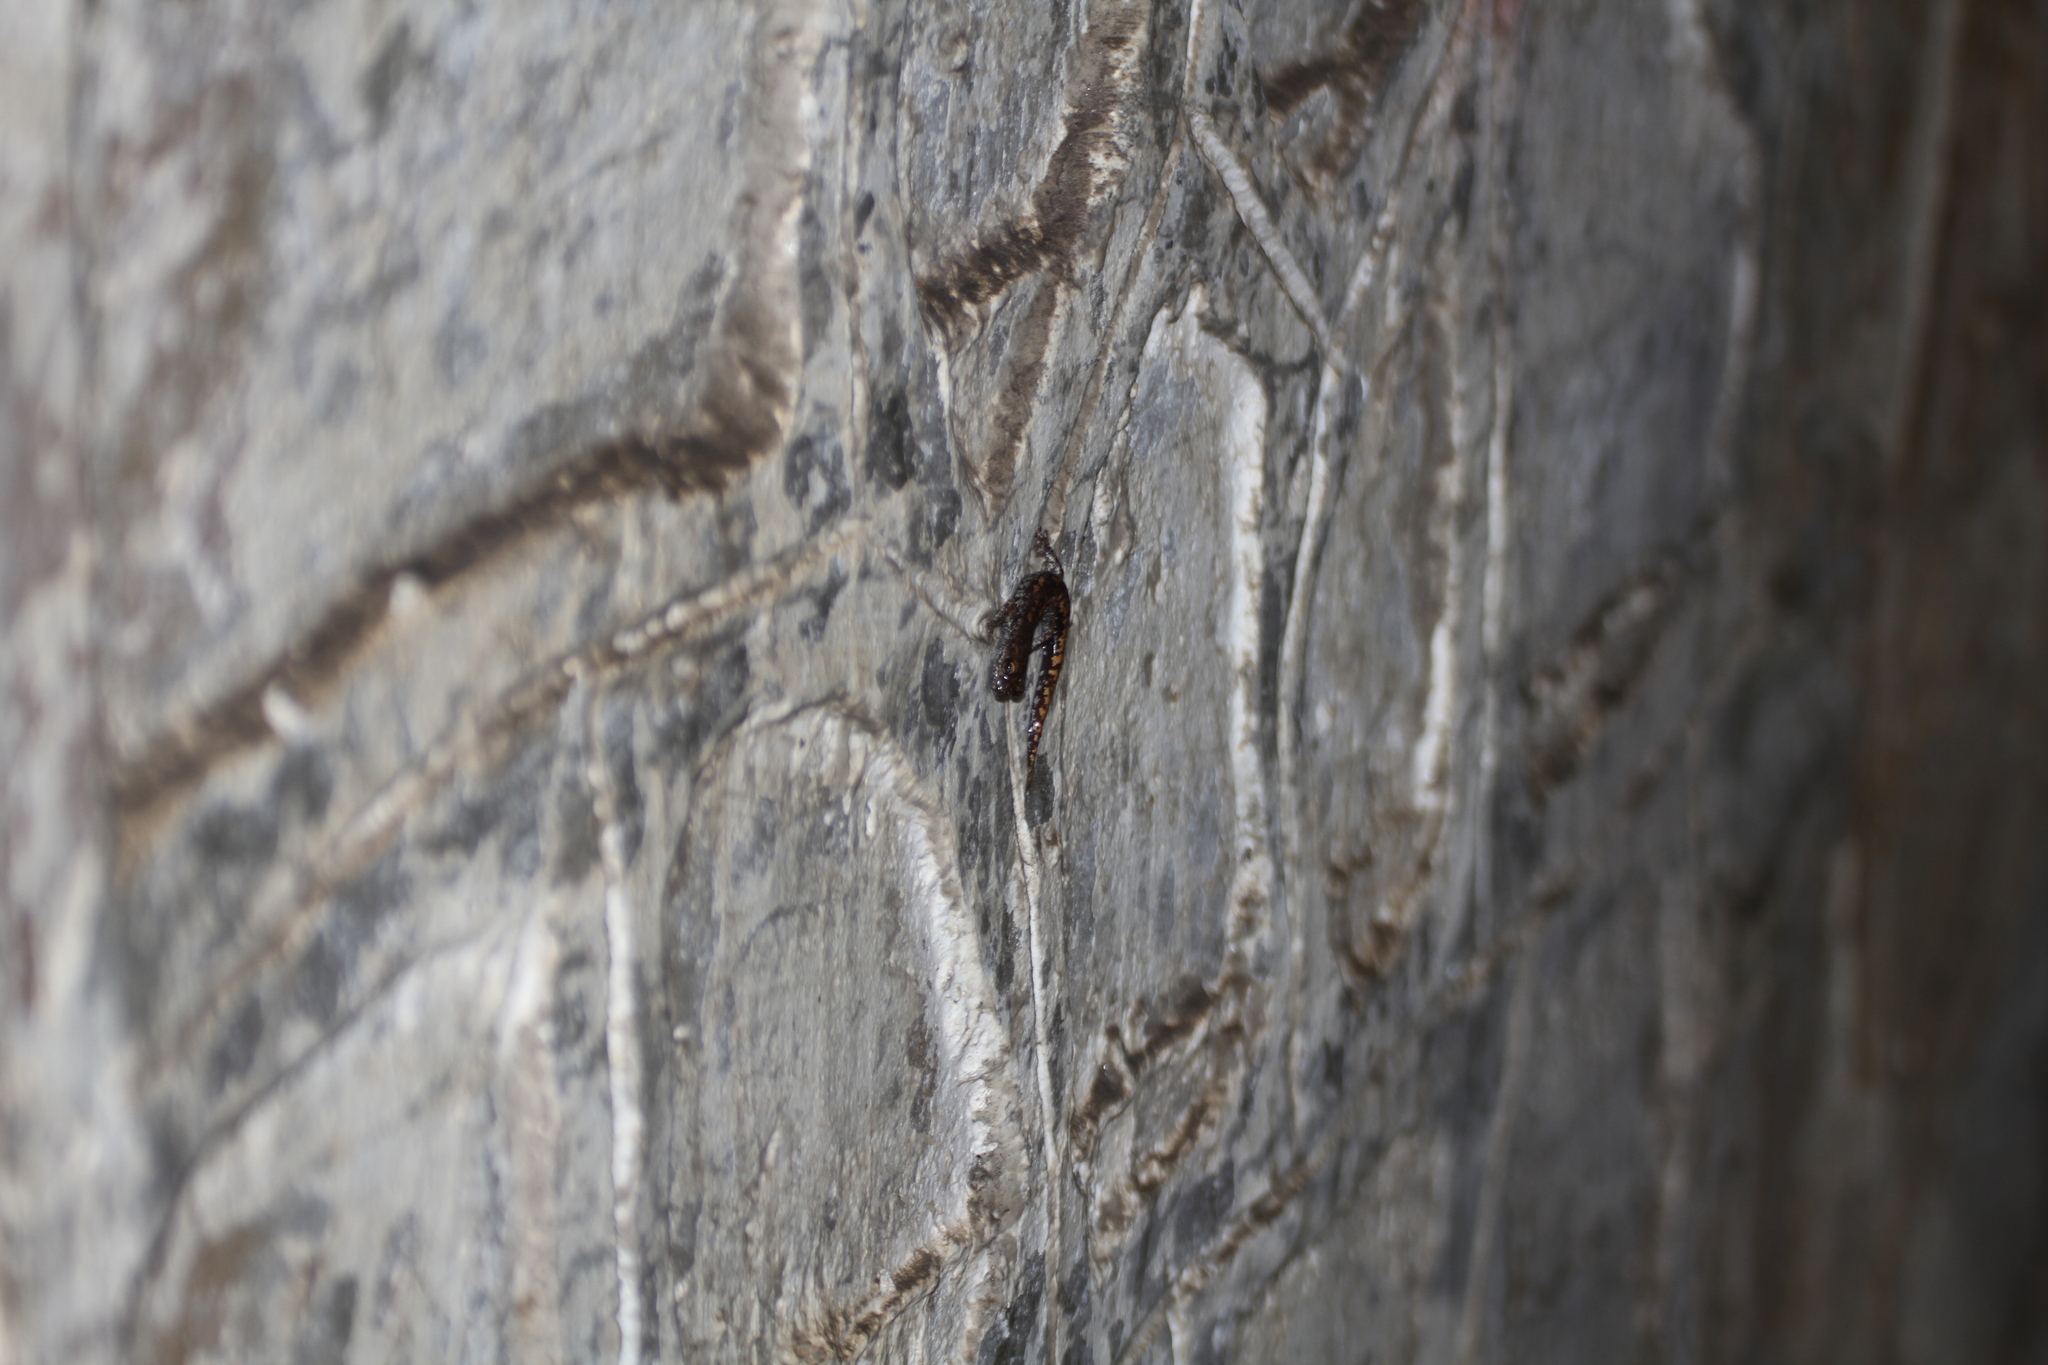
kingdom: Animalia
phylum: Chordata
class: Amphibia
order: Caudata
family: Plethodontidae
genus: Speleomantes
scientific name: Speleomantes strinatii
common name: French cave salamander
